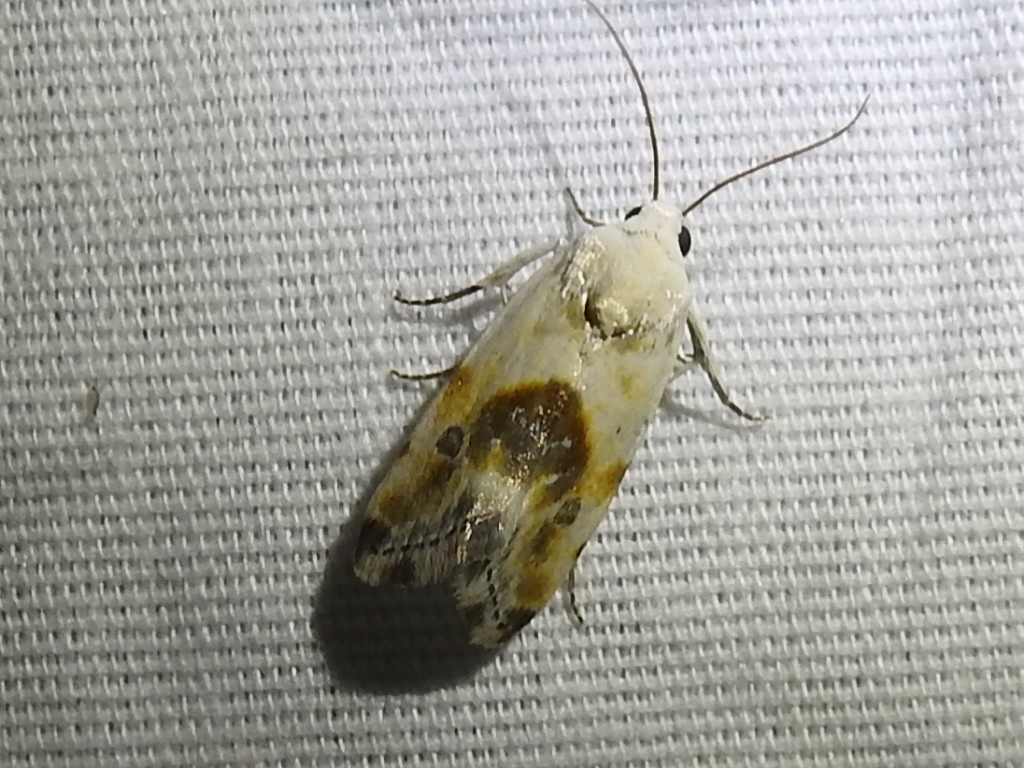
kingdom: Animalia
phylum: Arthropoda
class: Insecta
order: Lepidoptera
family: Noctuidae
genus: Acontia
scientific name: Acontia candefacta
